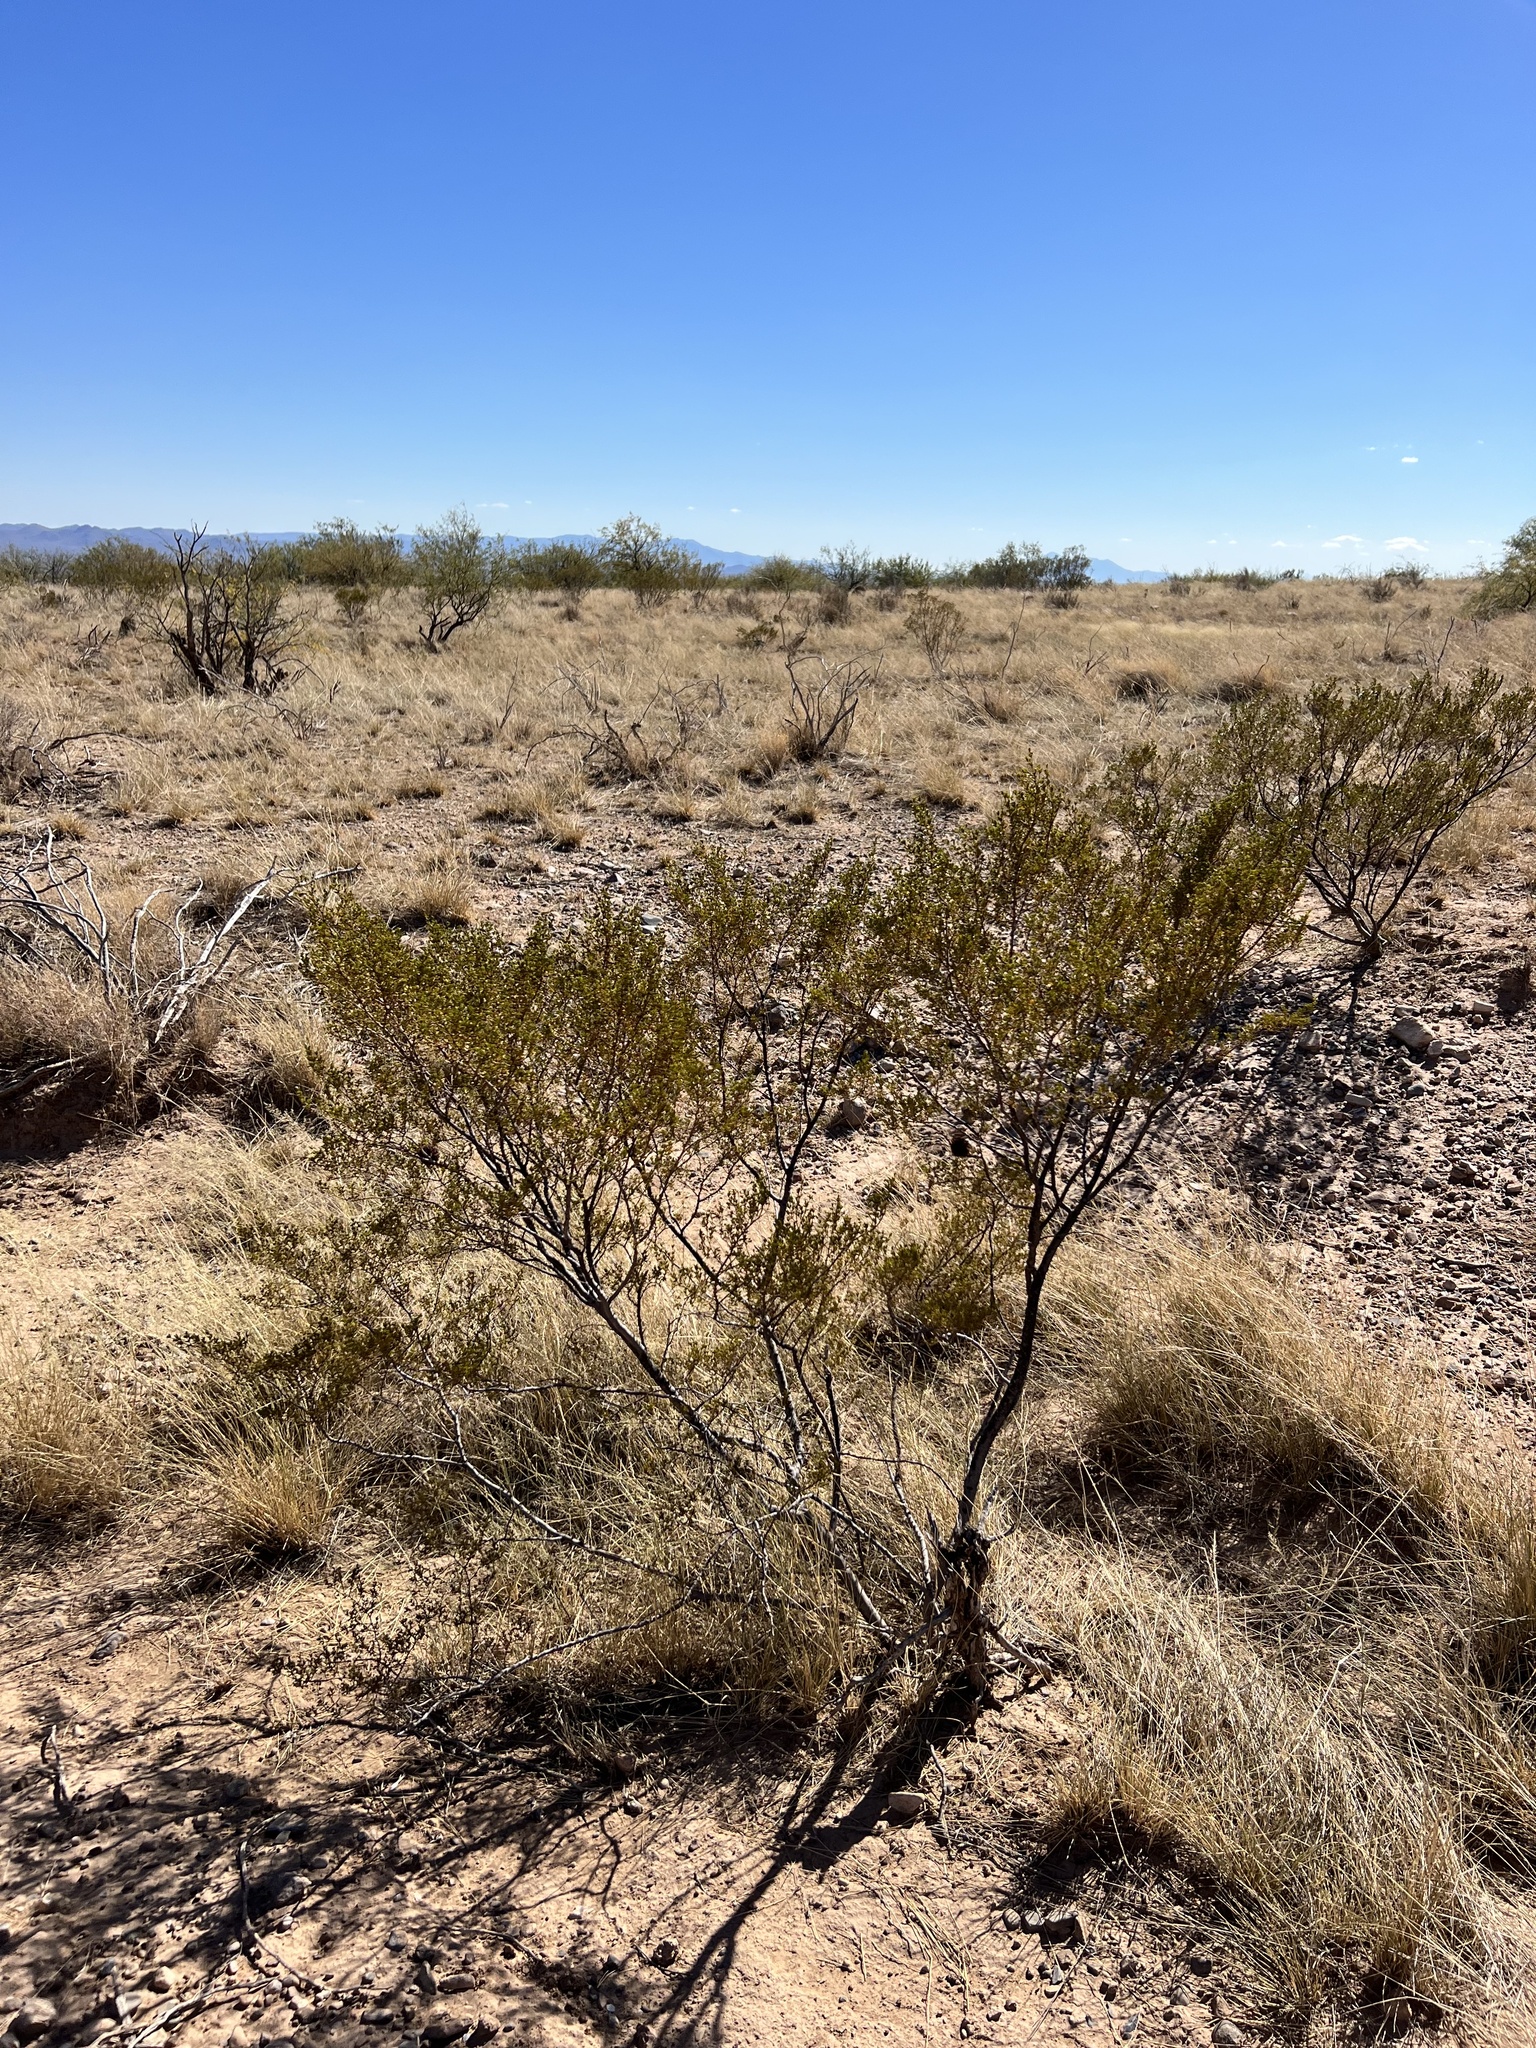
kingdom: Plantae
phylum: Tracheophyta
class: Magnoliopsida
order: Zygophyllales
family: Zygophyllaceae
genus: Larrea
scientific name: Larrea tridentata
